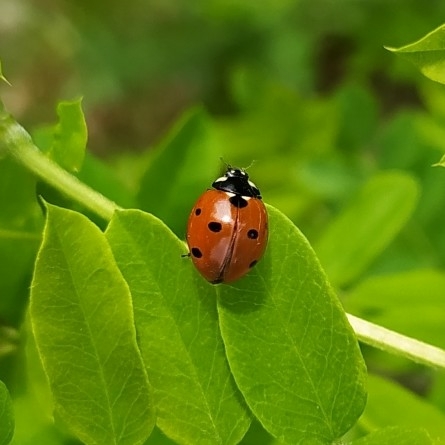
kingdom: Animalia
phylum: Arthropoda
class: Insecta
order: Coleoptera
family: Coccinellidae
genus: Coccinella
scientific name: Coccinella septempunctata
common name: Sevenspotted lady beetle
